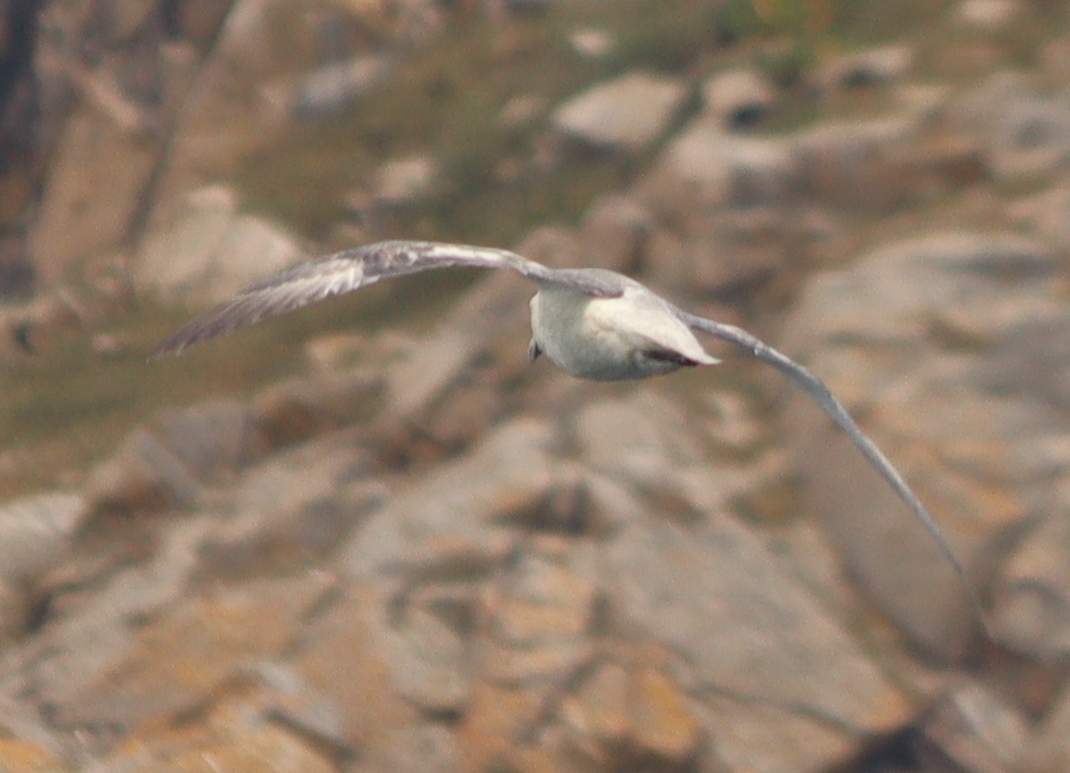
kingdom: Animalia
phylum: Chordata
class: Aves
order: Procellariiformes
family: Procellariidae
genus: Fulmarus
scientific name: Fulmarus glacialis
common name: Northern fulmar
